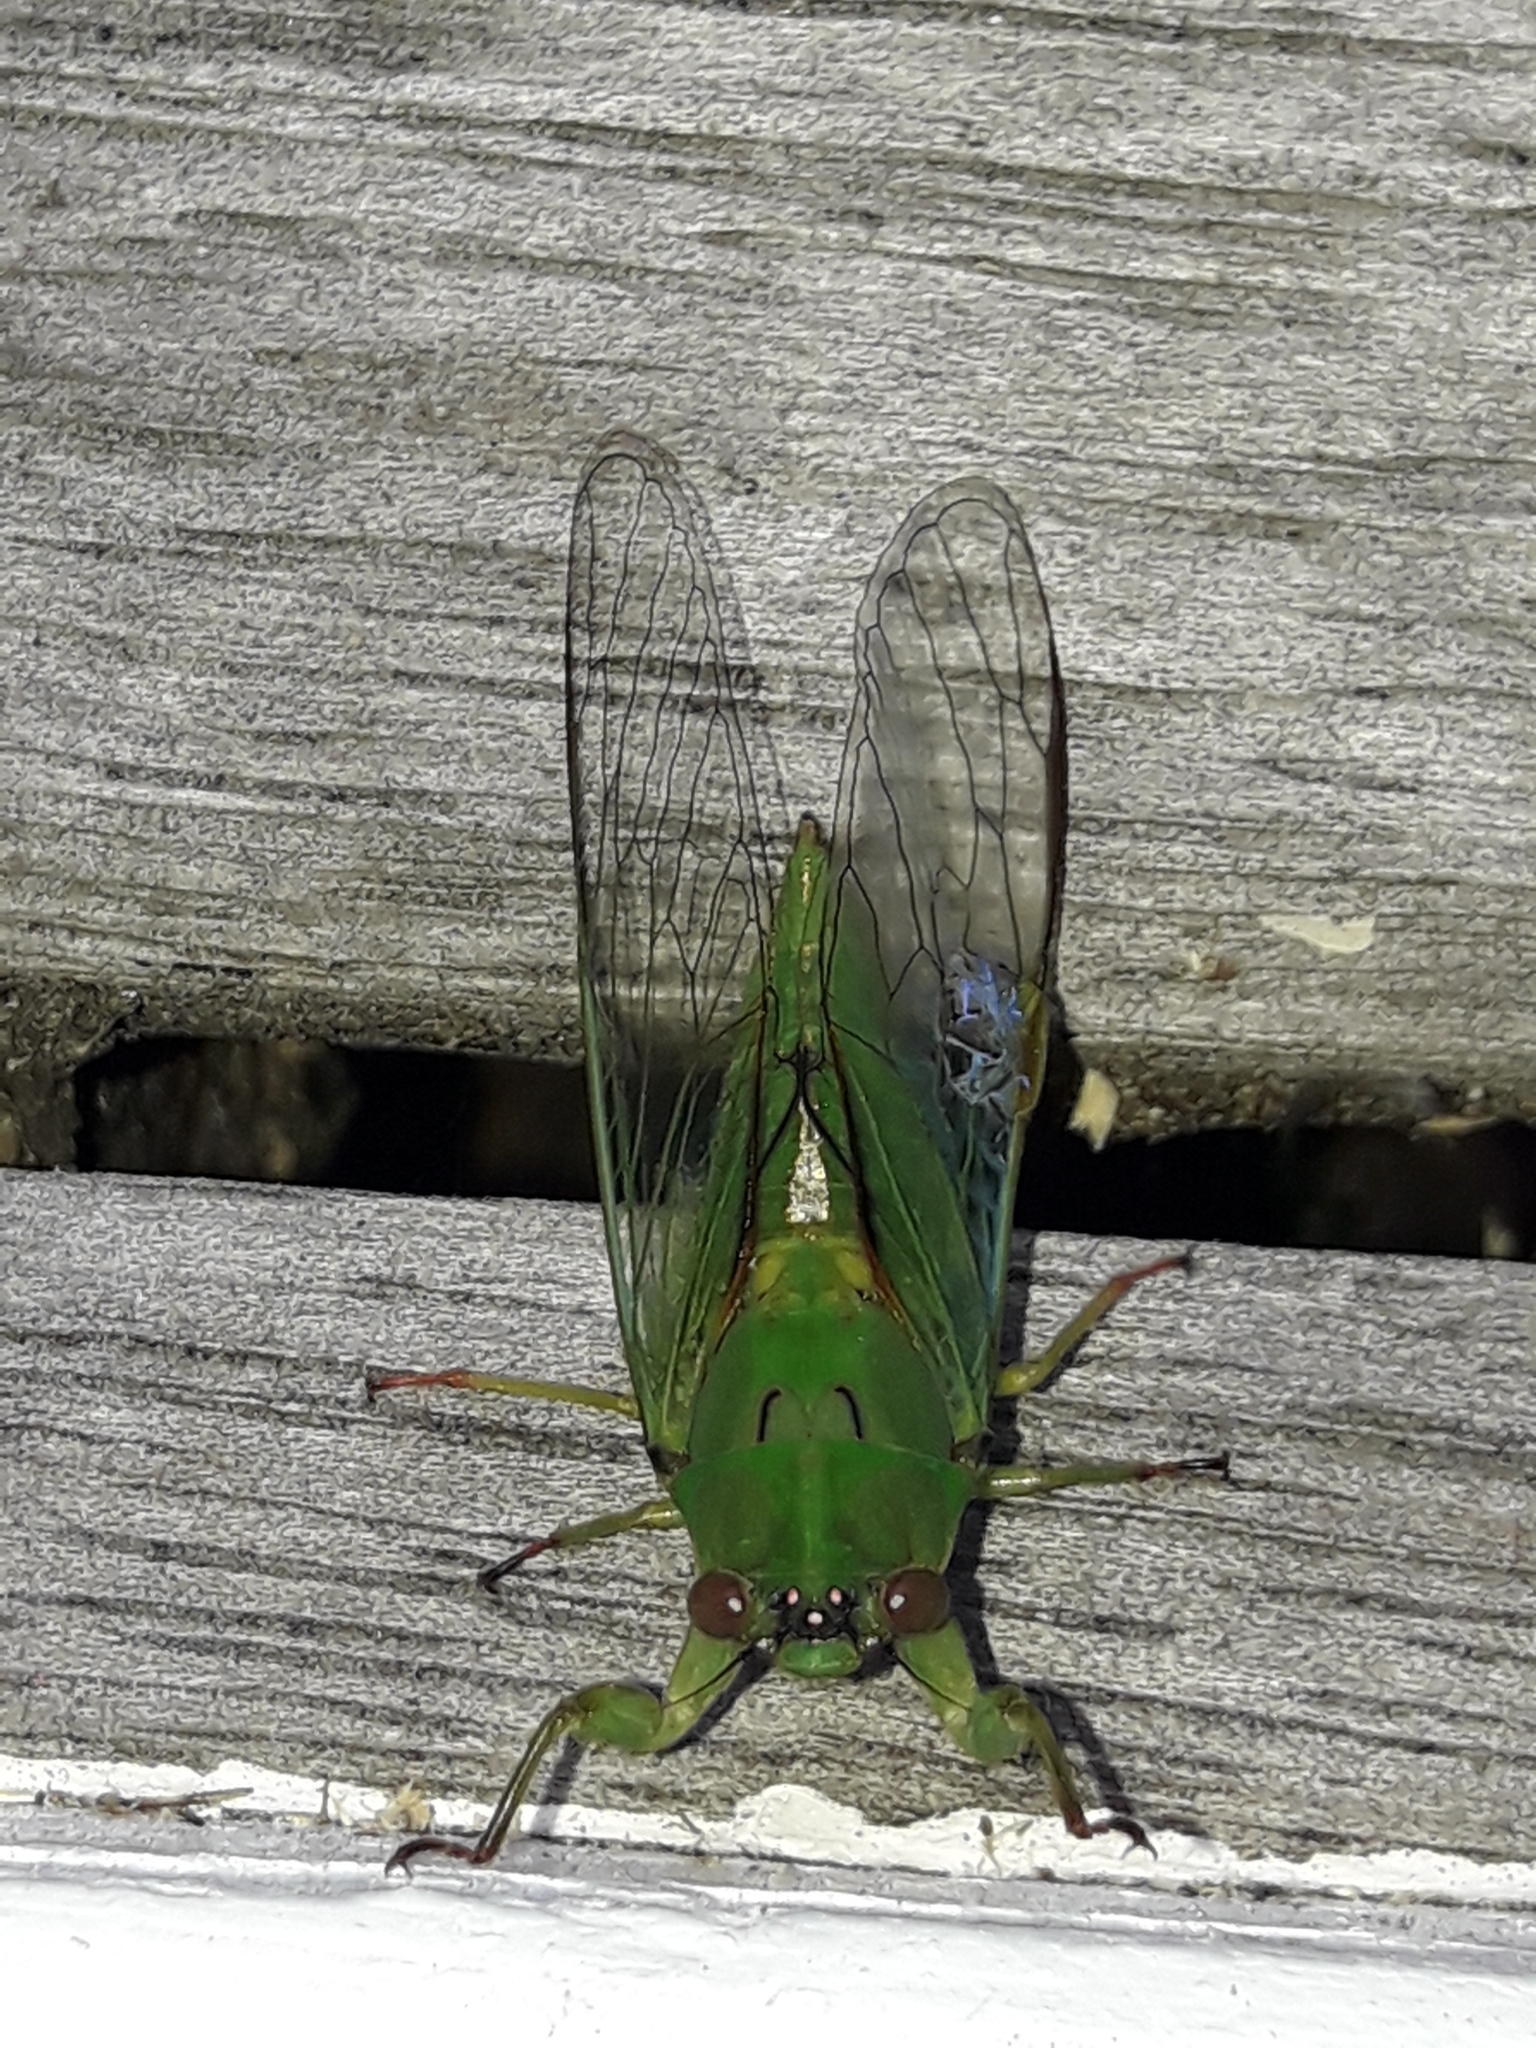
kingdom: Animalia
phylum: Arthropoda
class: Insecta
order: Hemiptera
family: Cicadidae
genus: Kikihia
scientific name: Kikihia ochrina
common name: April green cicada
